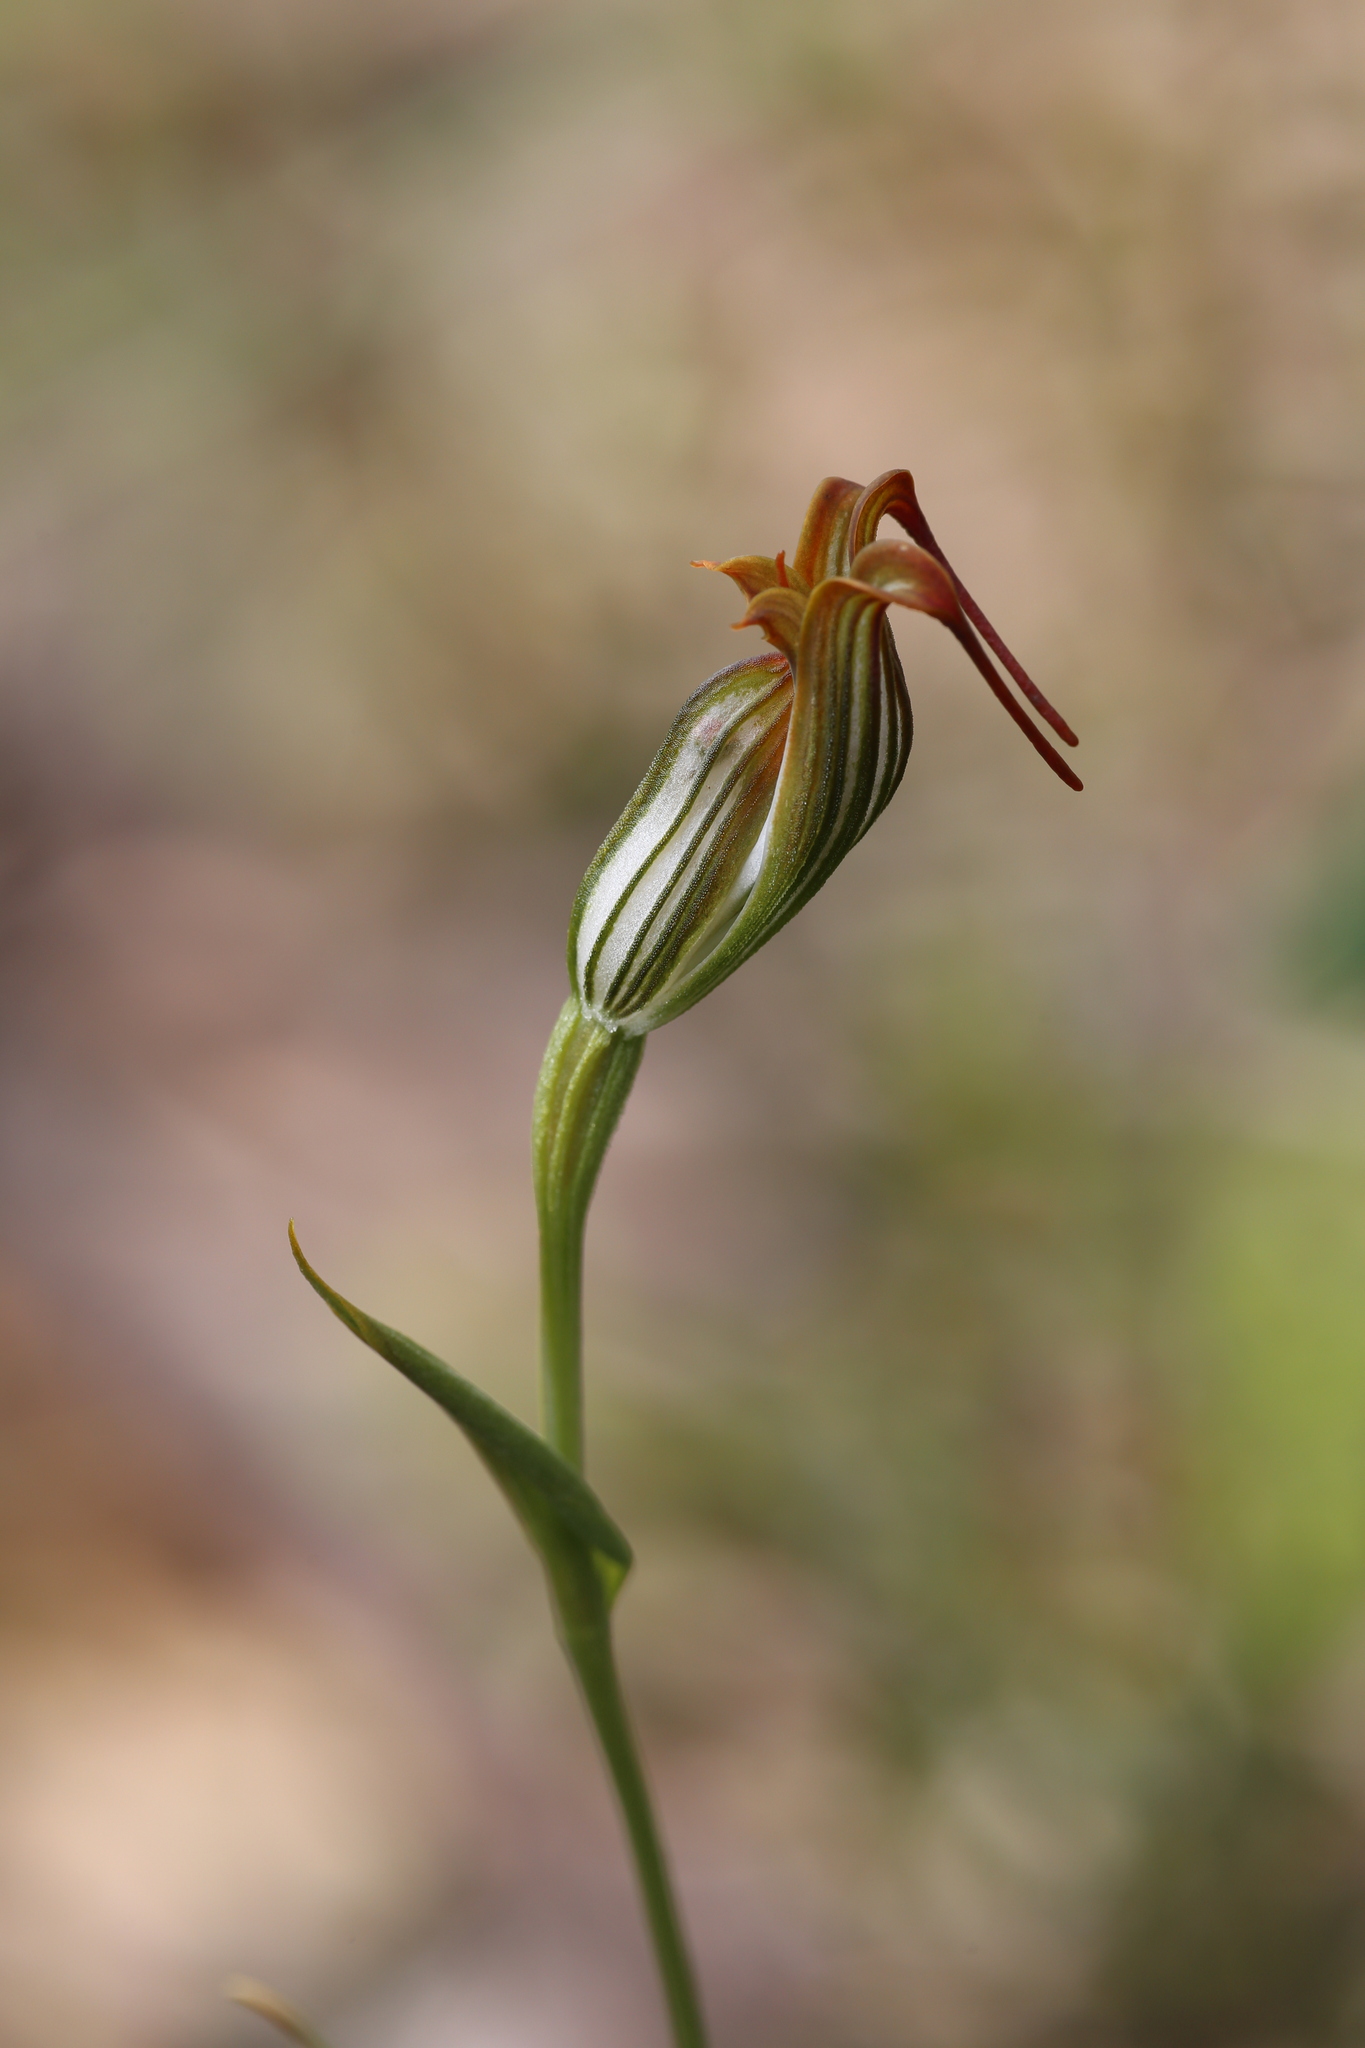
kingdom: Plantae
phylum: Tracheophyta
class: Liliopsida
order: Asparagales
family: Orchidaceae
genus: Pterostylis
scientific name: Pterostylis recurva
